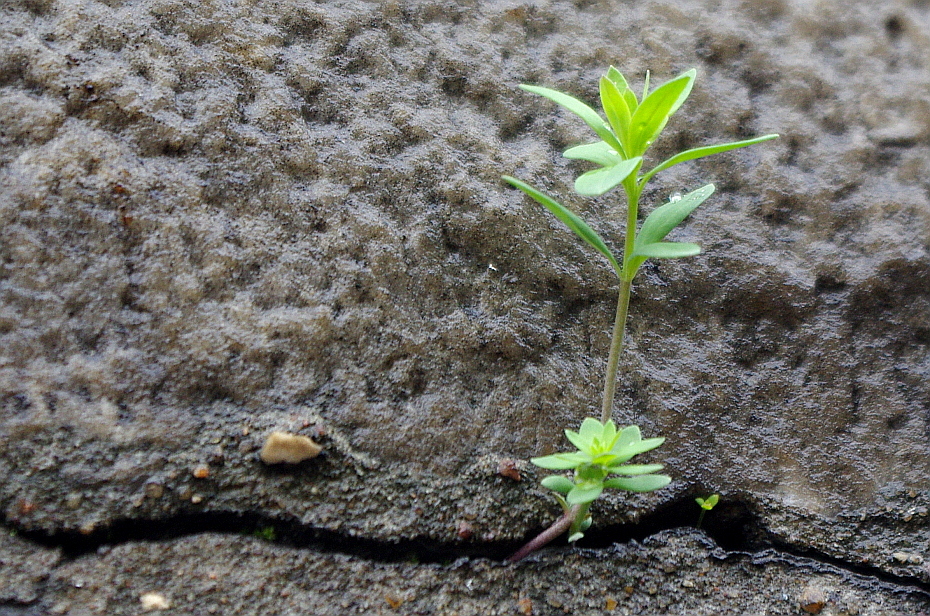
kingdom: Plantae
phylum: Tracheophyta
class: Magnoliopsida
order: Gentianales
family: Rubiaceae
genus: Galium
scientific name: Galium mollugo
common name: Hedge bedstraw
